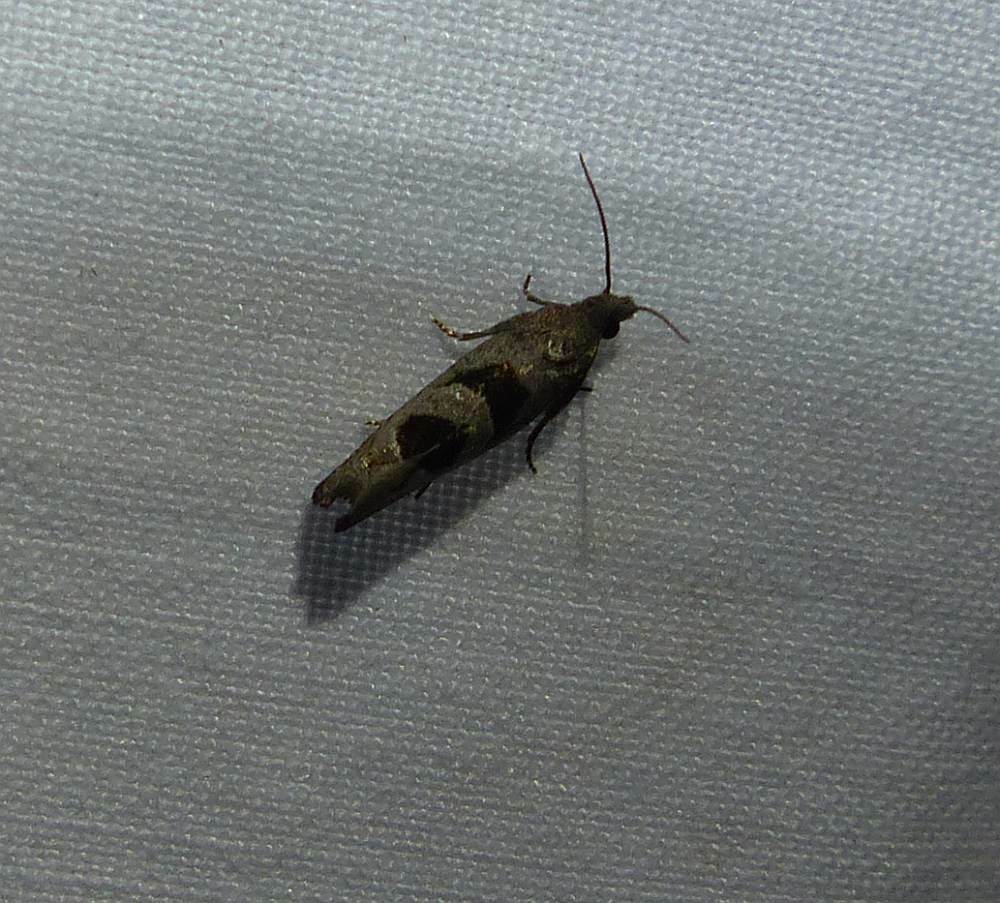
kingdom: Animalia
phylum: Arthropoda
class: Insecta
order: Lepidoptera
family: Tortricidae
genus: Eucosma
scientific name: Eucosma tomonana
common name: Aster-head eucosma moth
